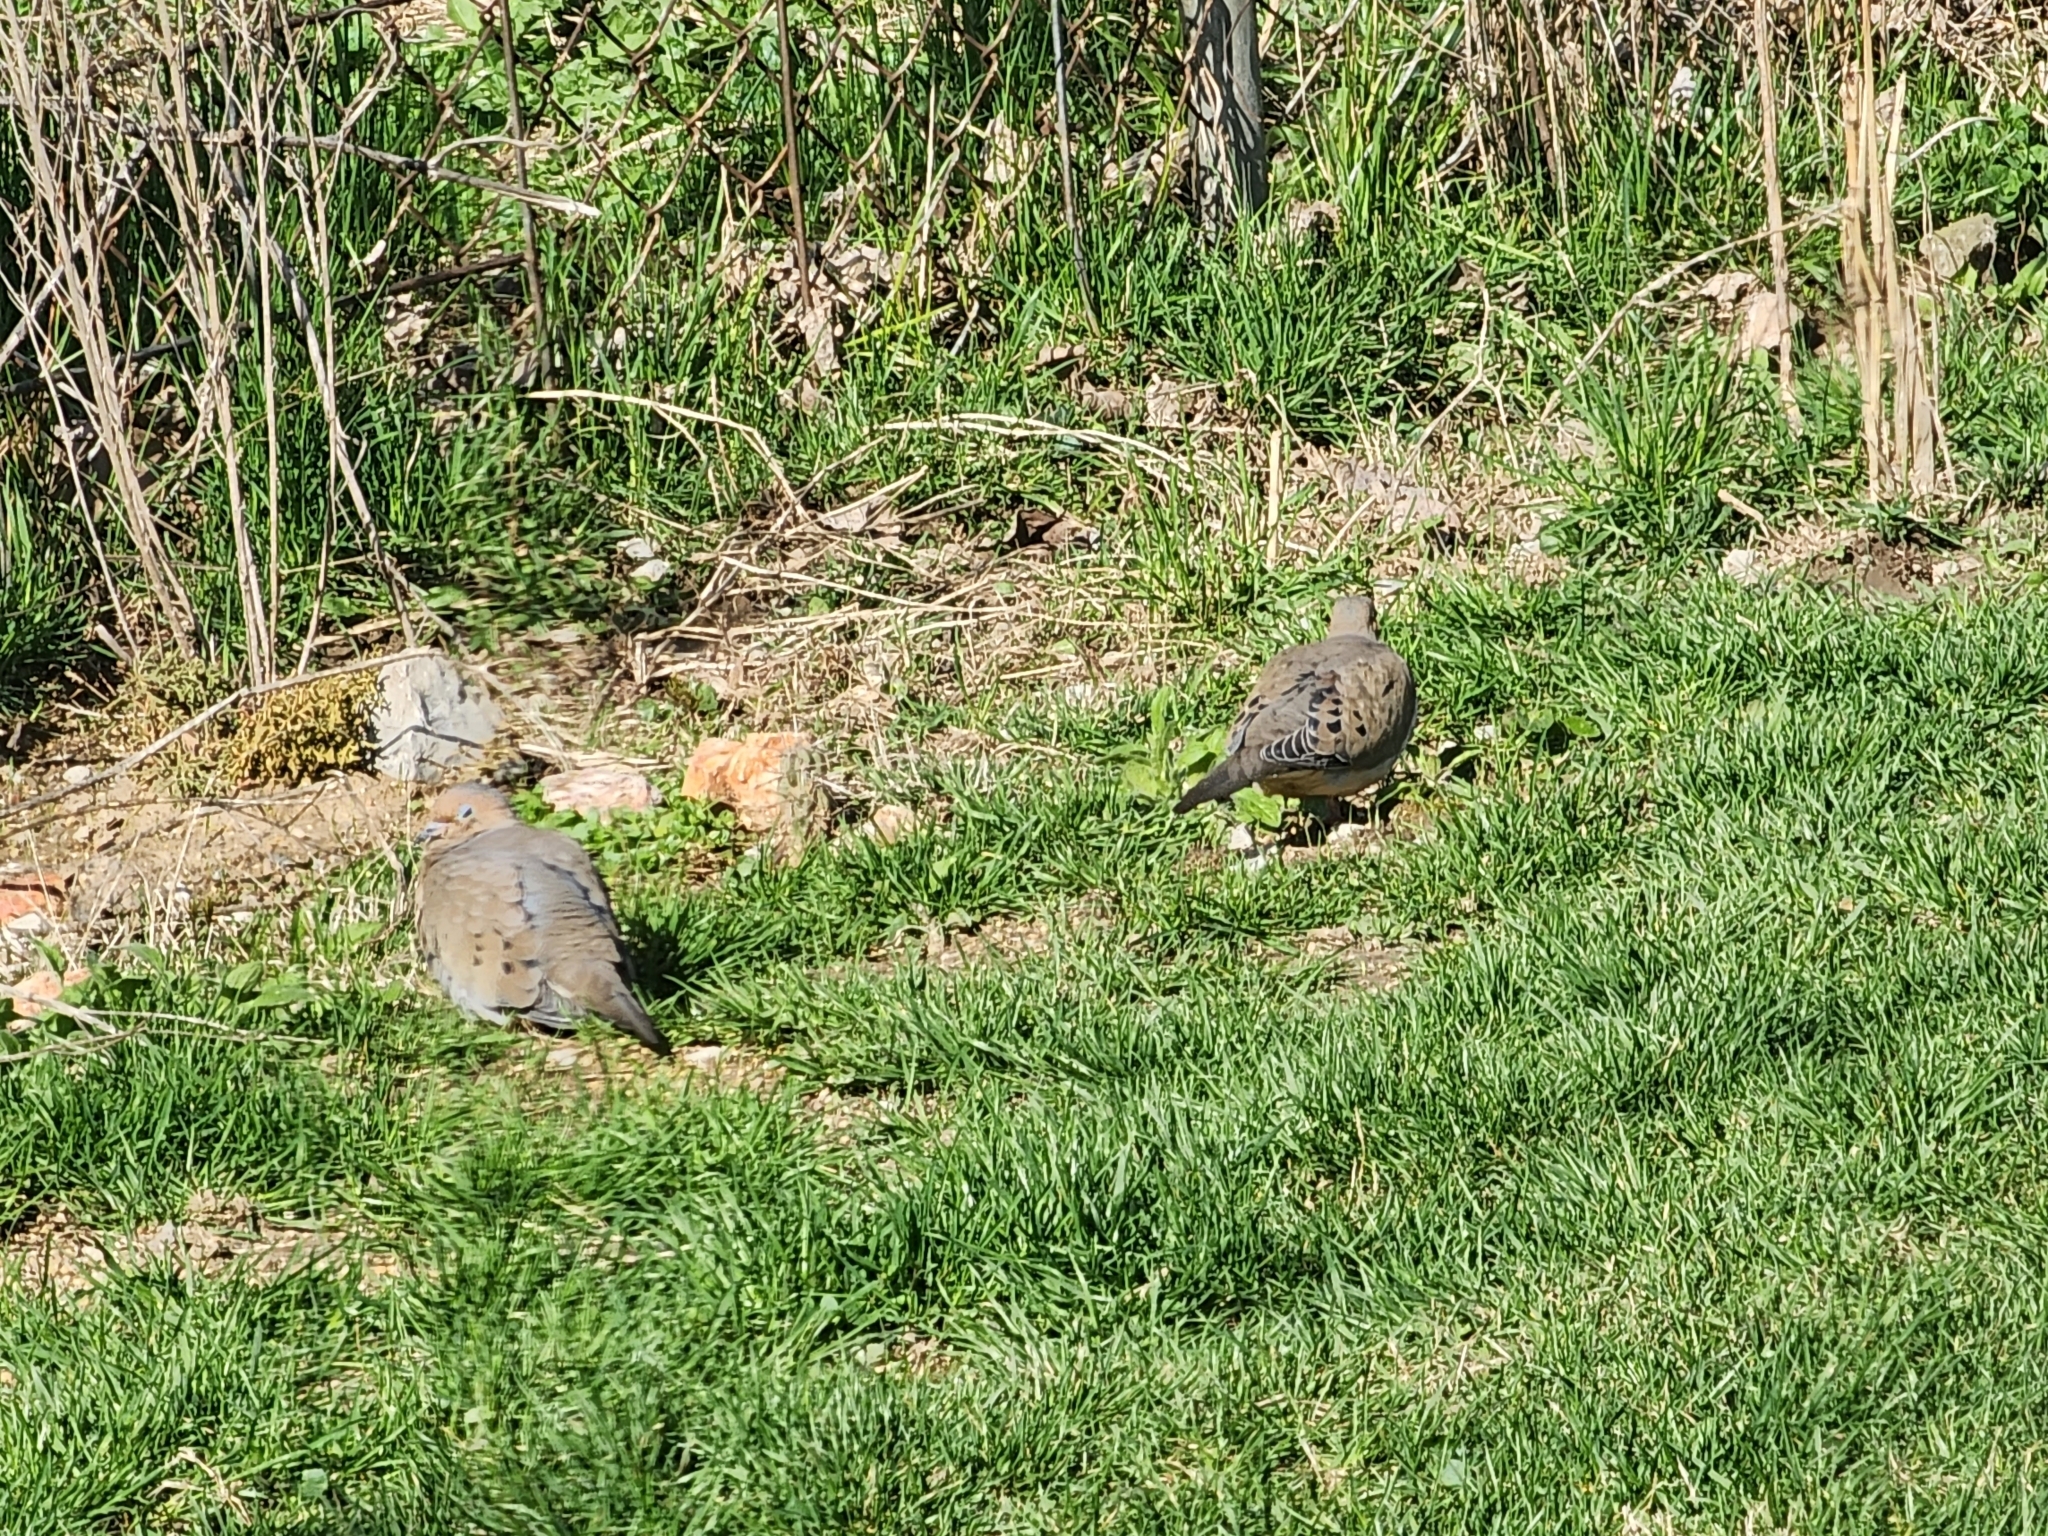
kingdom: Animalia
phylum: Chordata
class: Aves
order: Columbiformes
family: Columbidae
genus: Zenaida
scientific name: Zenaida macroura
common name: Mourning dove
